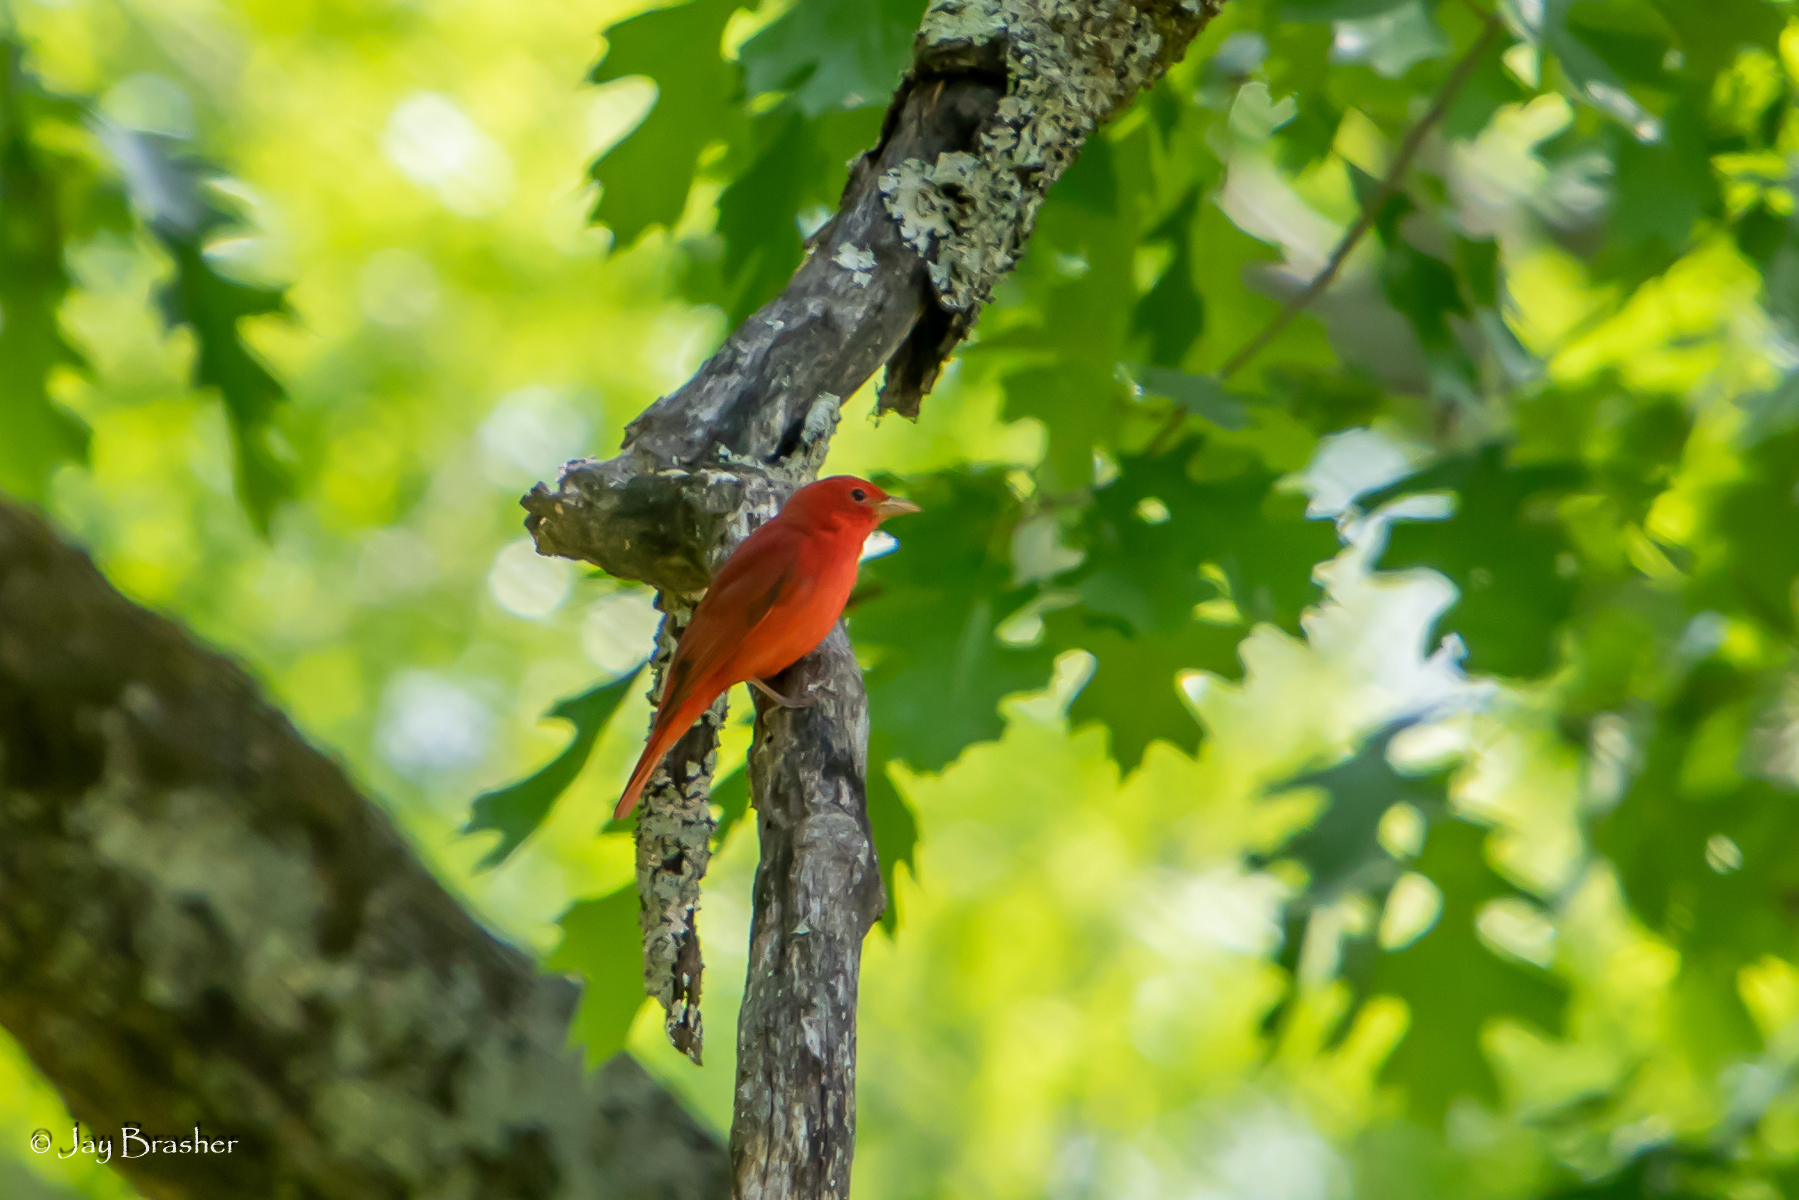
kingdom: Animalia
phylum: Chordata
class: Aves
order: Passeriformes
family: Cardinalidae
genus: Piranga
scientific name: Piranga rubra
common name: Summer tanager
